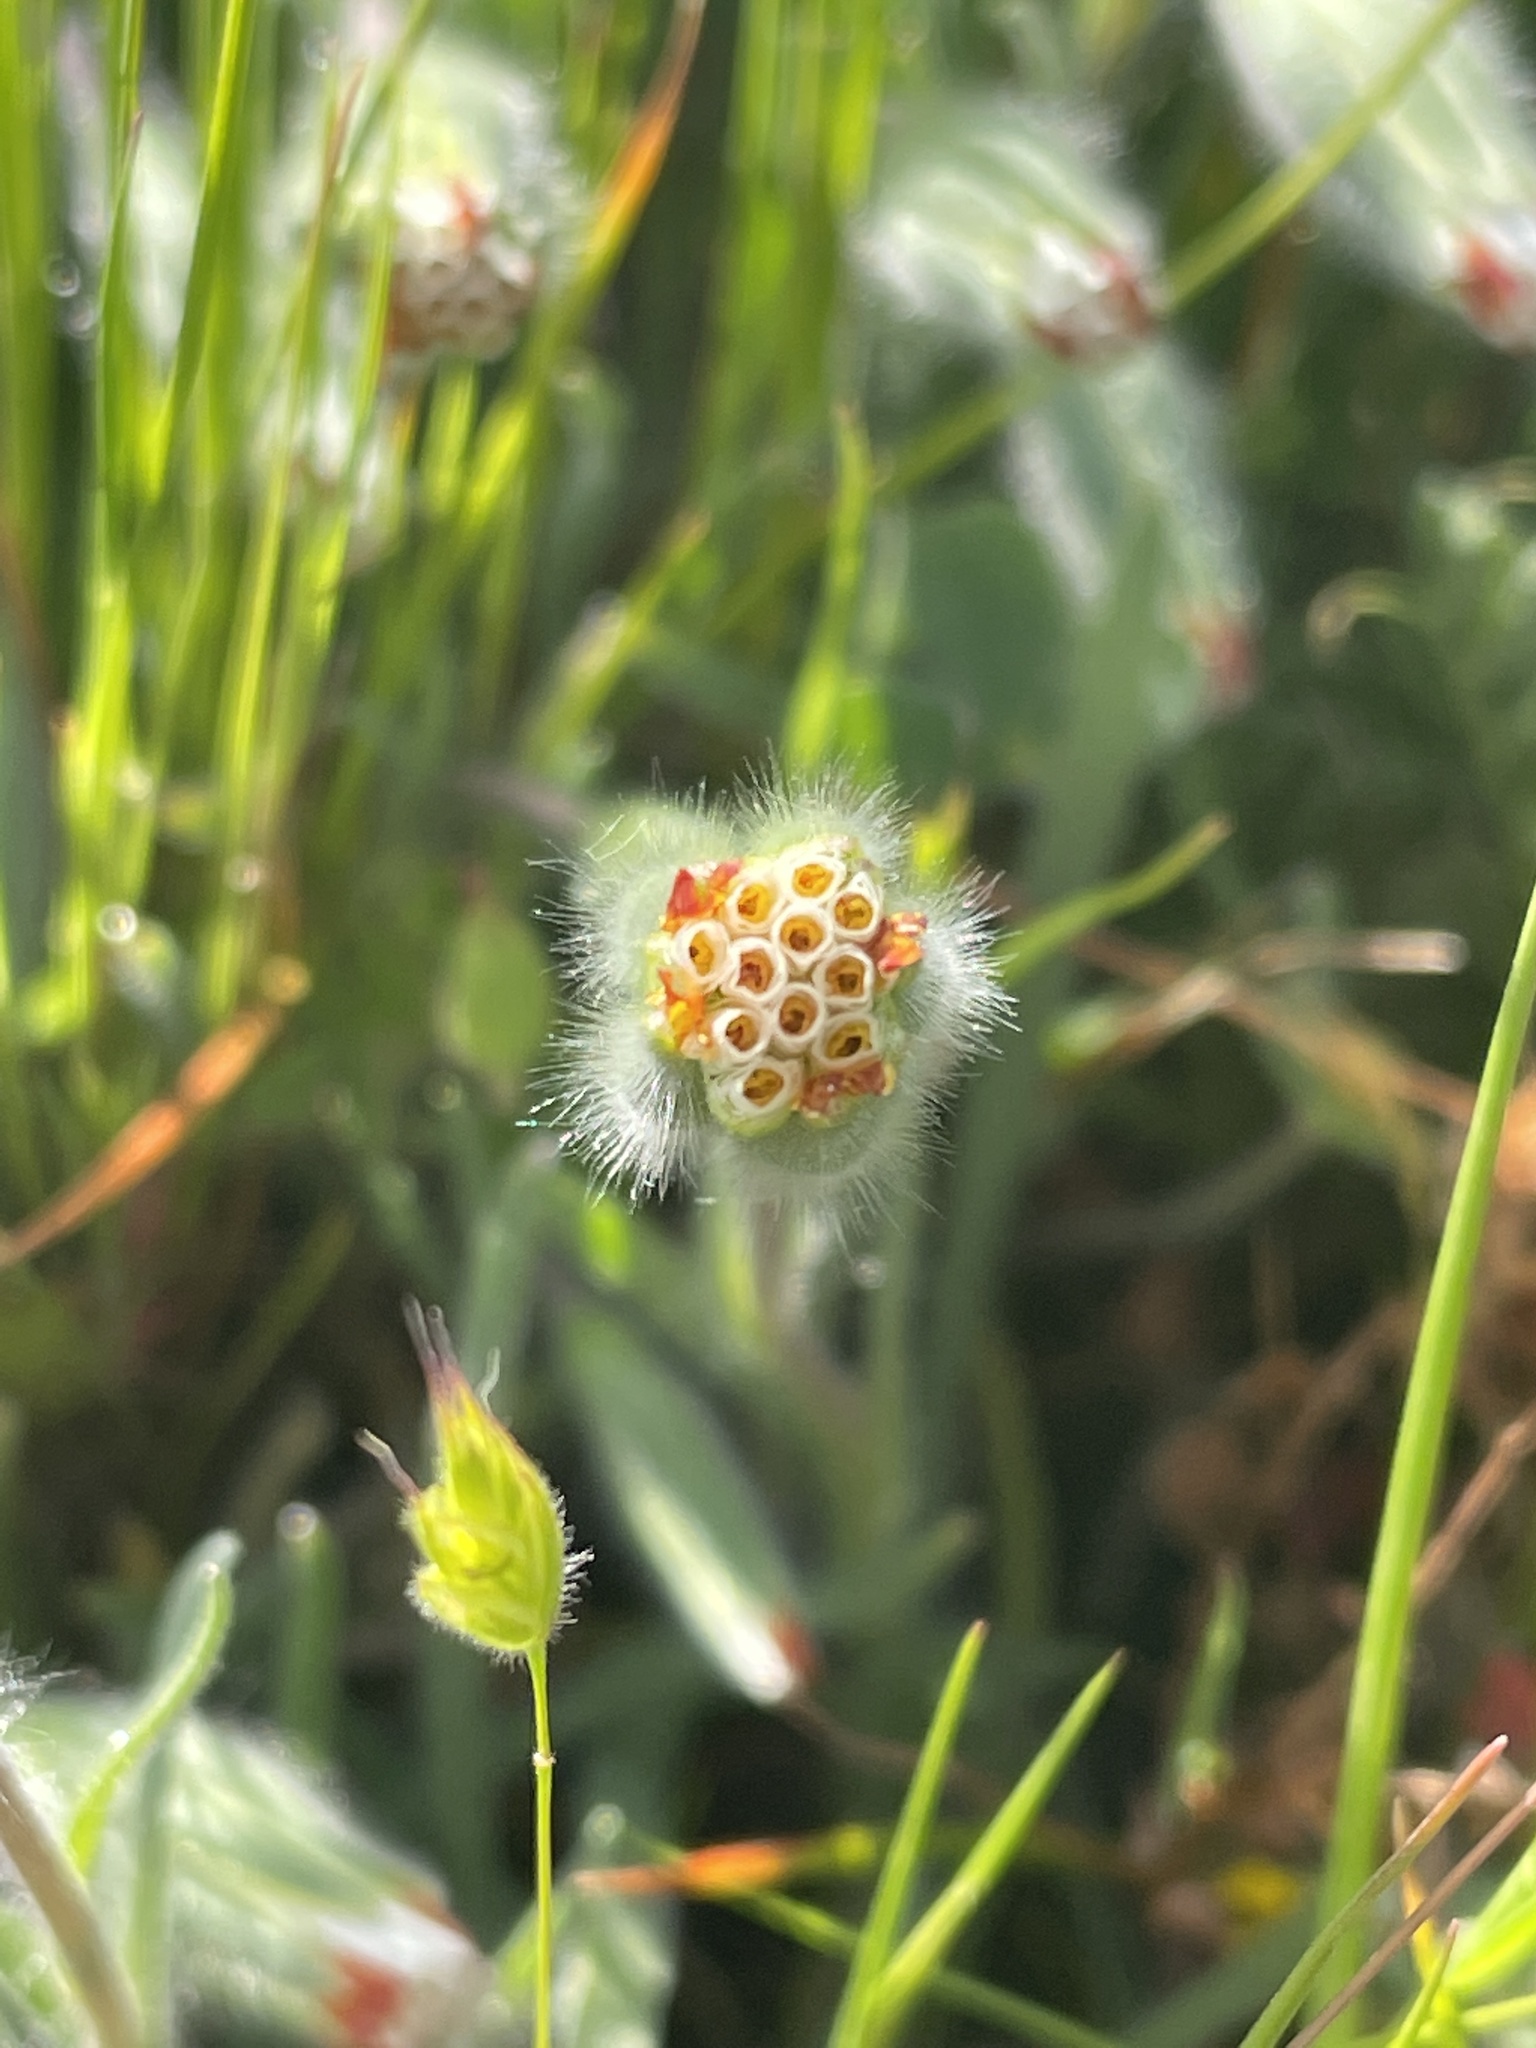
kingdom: Plantae
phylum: Tracheophyta
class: Magnoliopsida
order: Asterales
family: Asteraceae
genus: Achyrachaena
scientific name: Achyrachaena mollis
